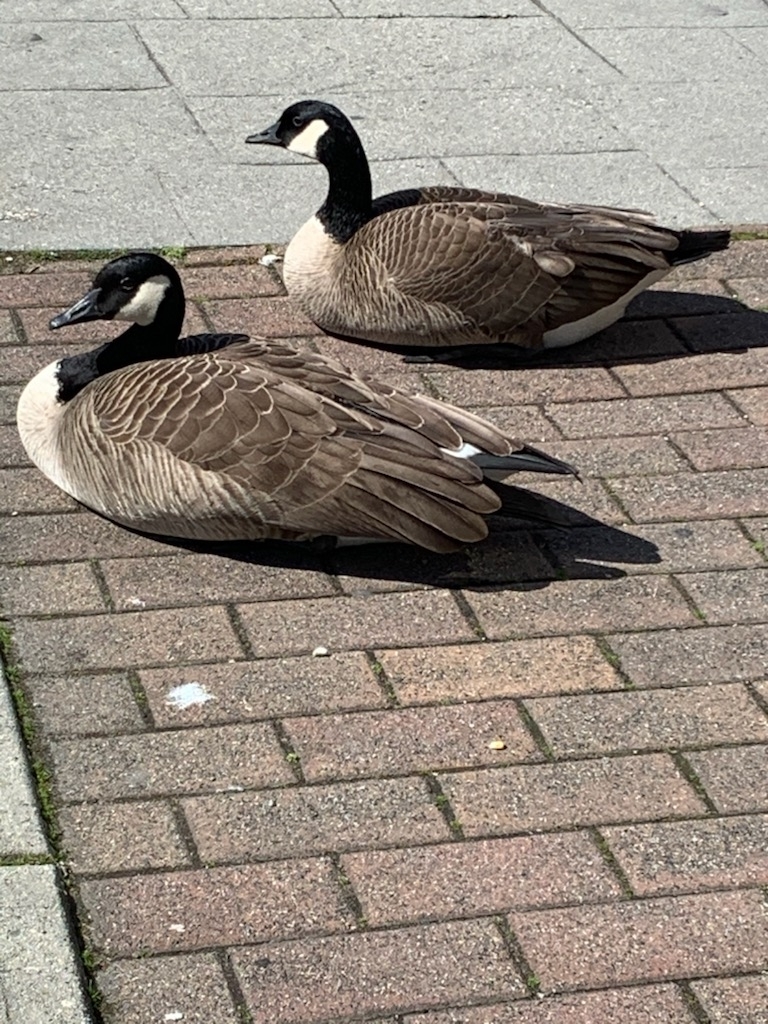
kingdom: Animalia
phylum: Chordata
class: Aves
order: Anseriformes
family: Anatidae
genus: Branta
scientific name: Branta canadensis
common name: Canada goose
